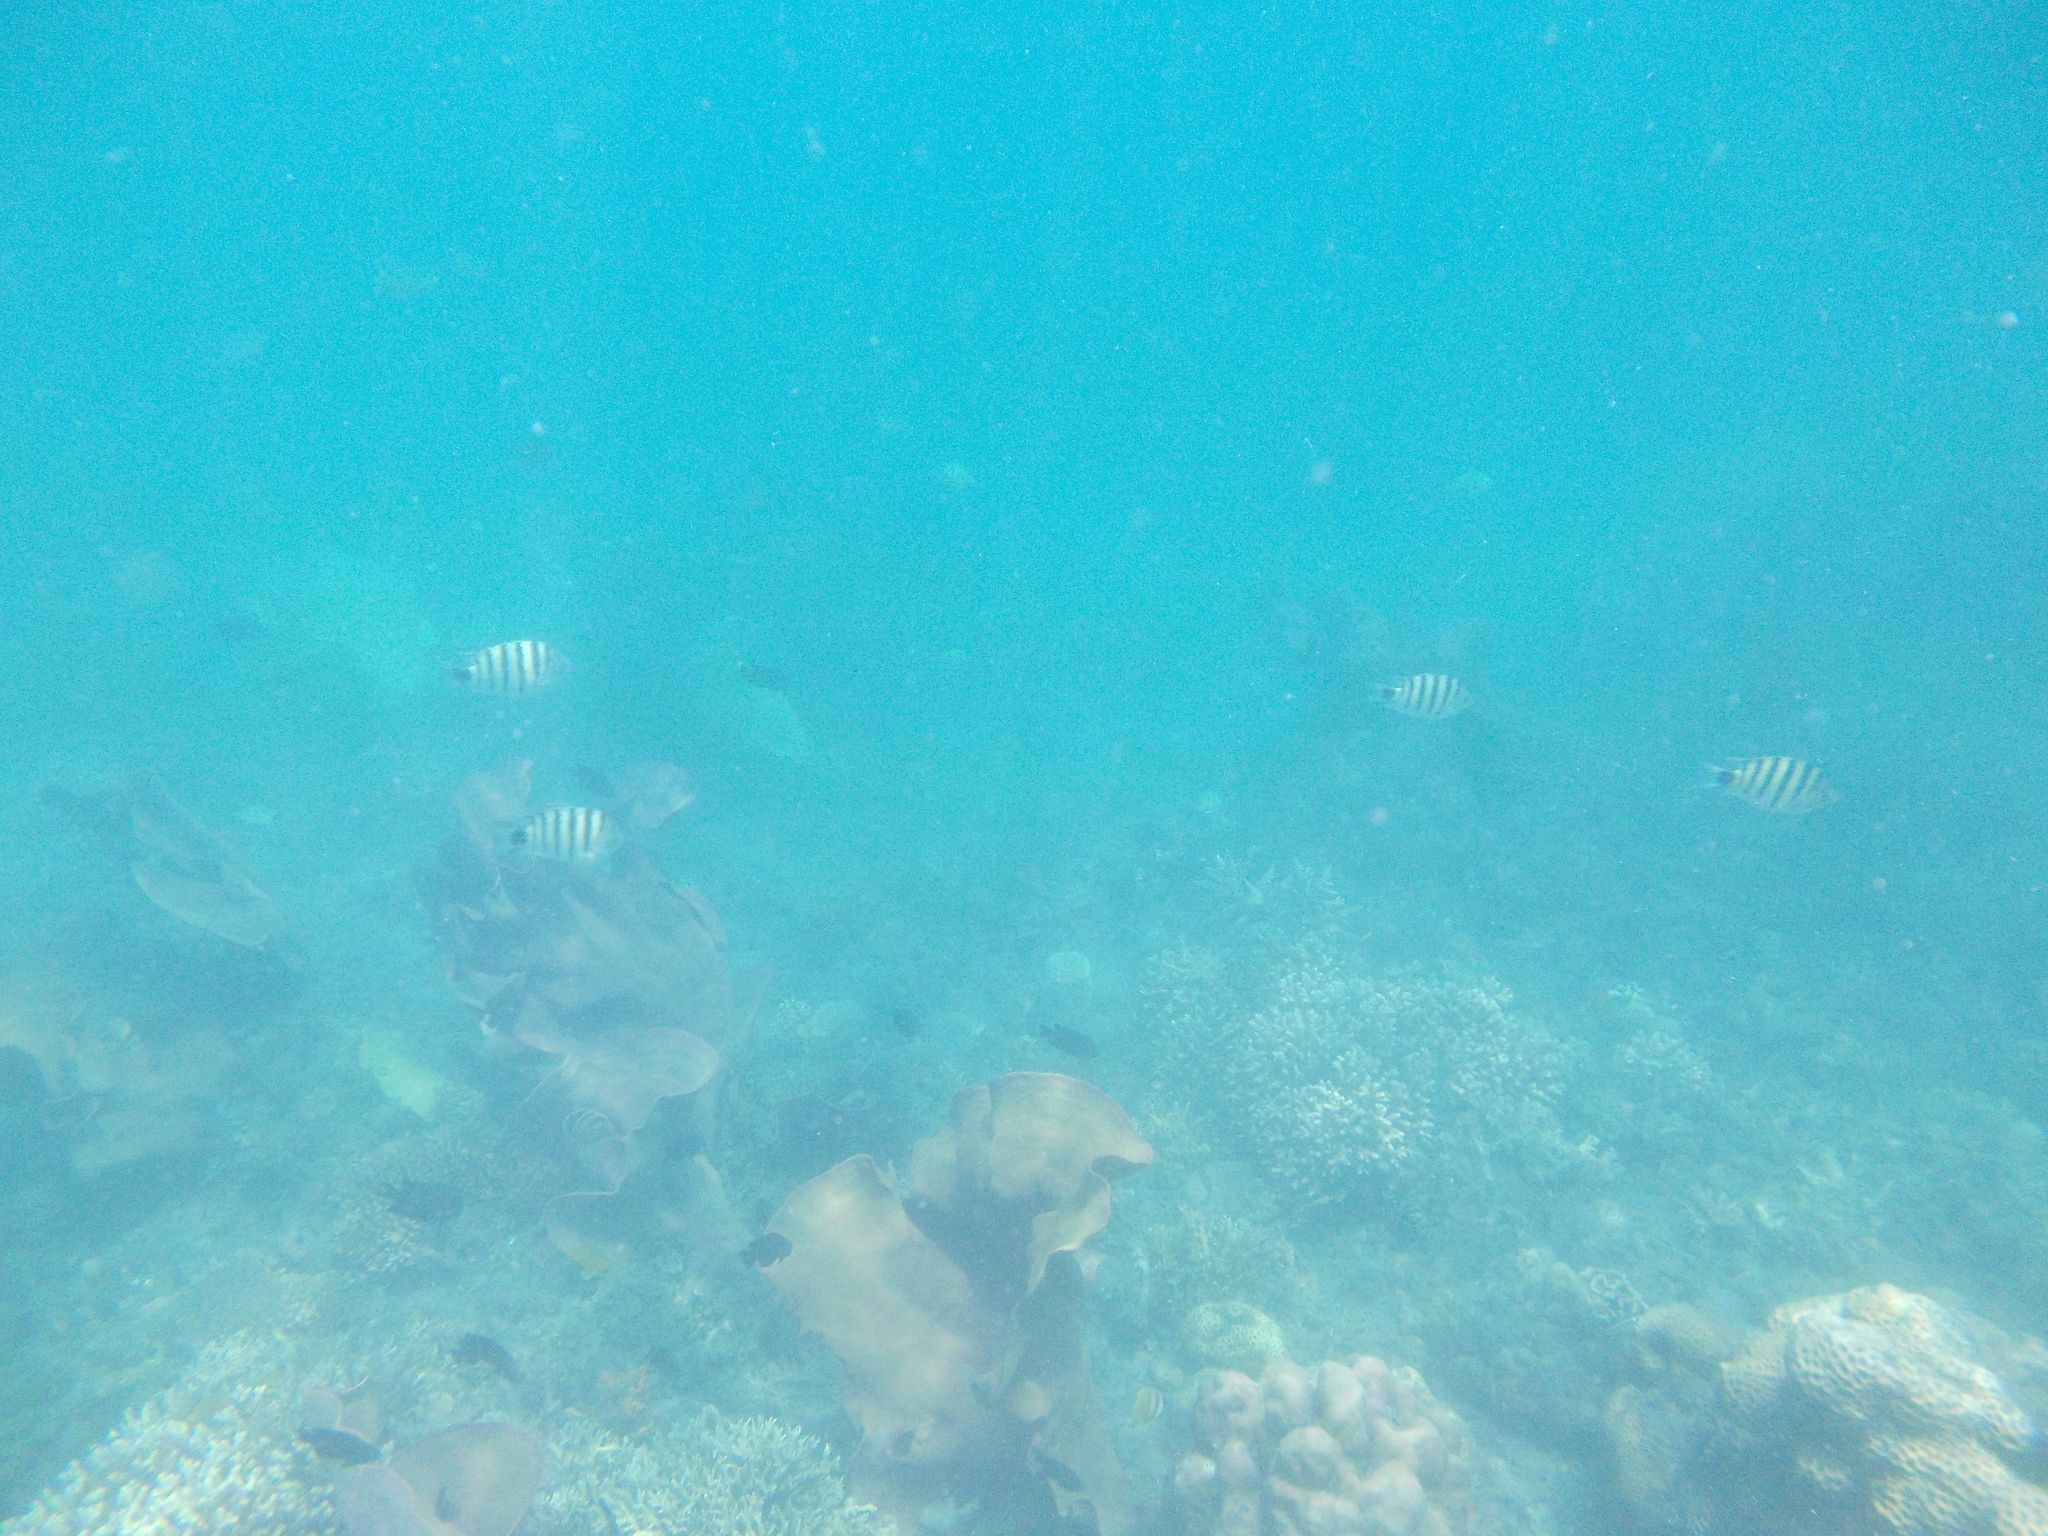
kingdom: Animalia
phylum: Chordata
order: Perciformes
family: Pomacentridae
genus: Abudefduf
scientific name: Abudefduf lorenzi
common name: Black-tail sergeant
